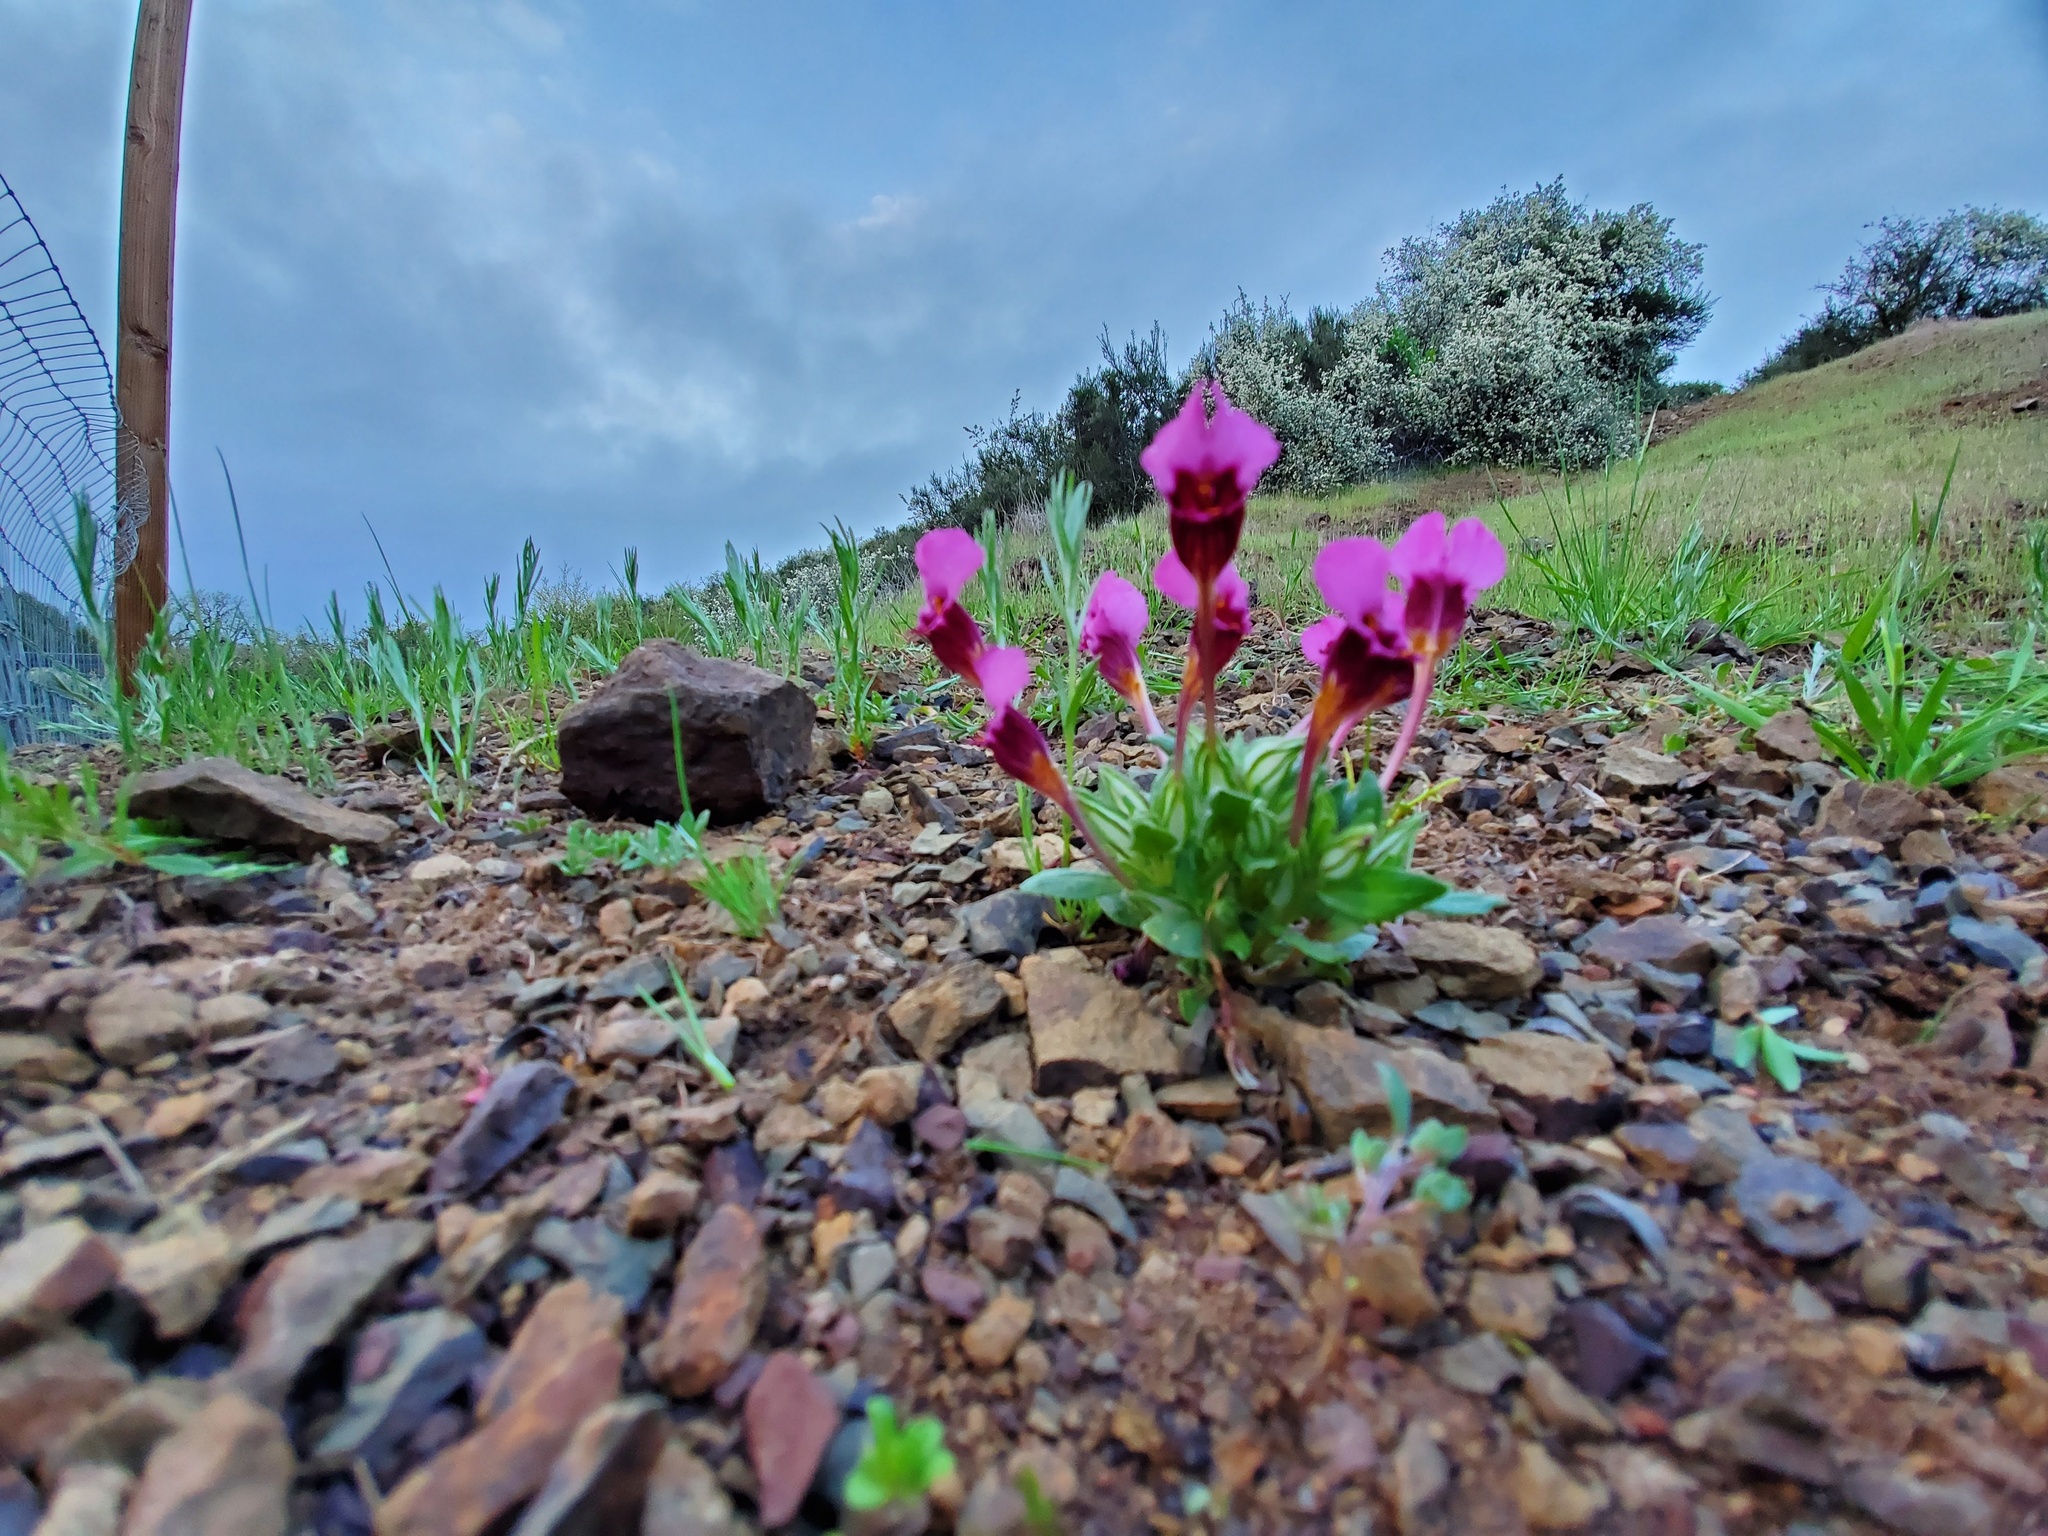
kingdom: Plantae
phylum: Tracheophyta
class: Magnoliopsida
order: Lamiales
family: Phrymaceae
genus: Diplacus
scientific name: Diplacus douglasii
